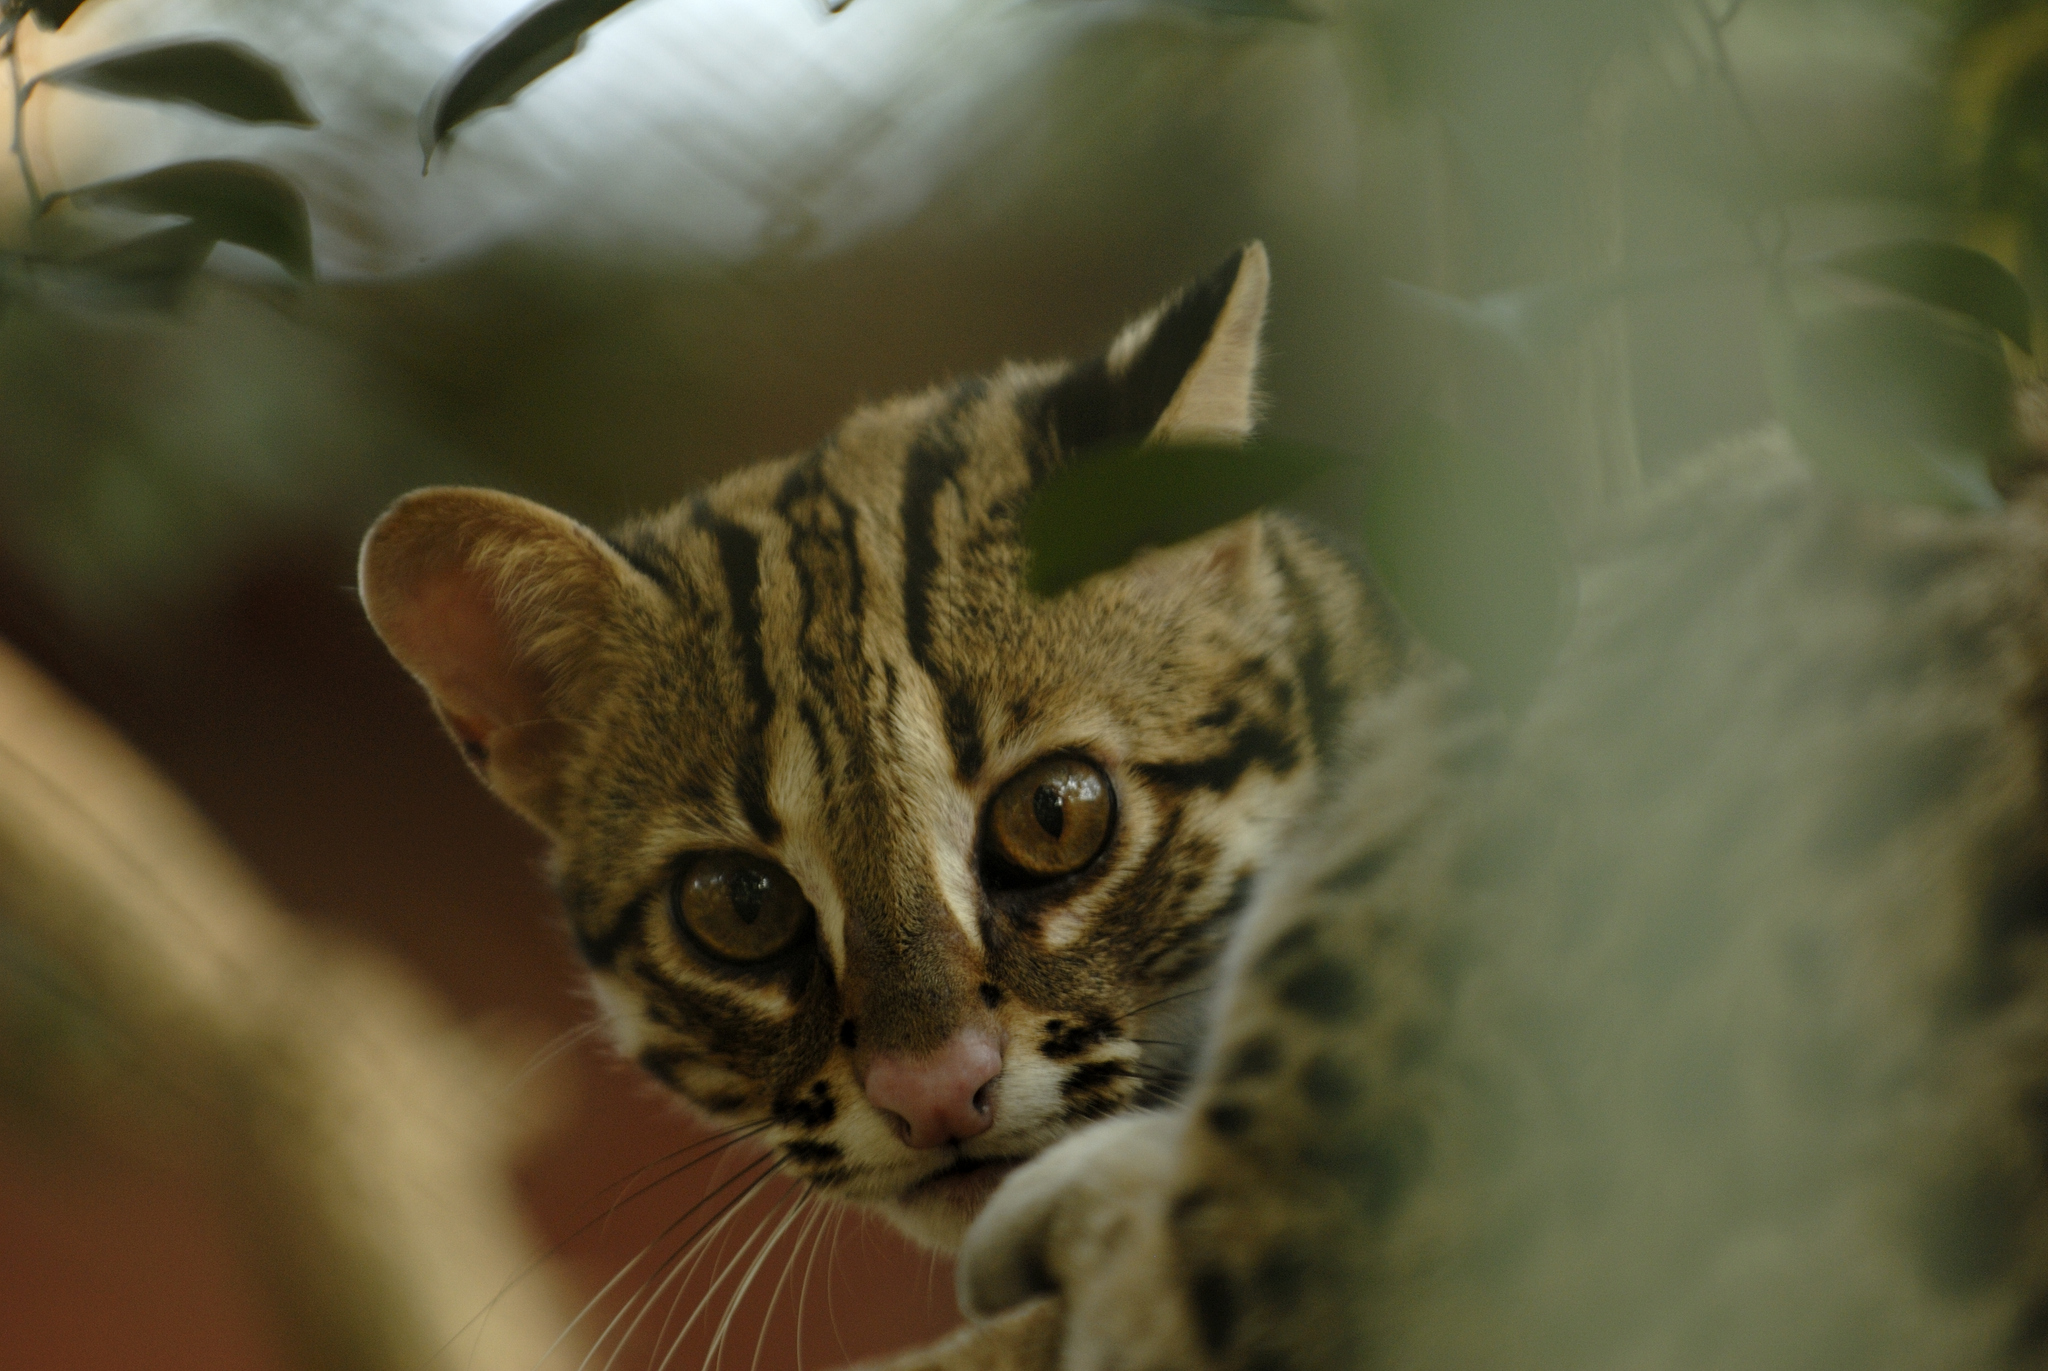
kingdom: Animalia
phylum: Chordata
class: Mammalia
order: Carnivora
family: Felidae
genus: Prionailurus
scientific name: Prionailurus bengalensis
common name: Leopard cat
